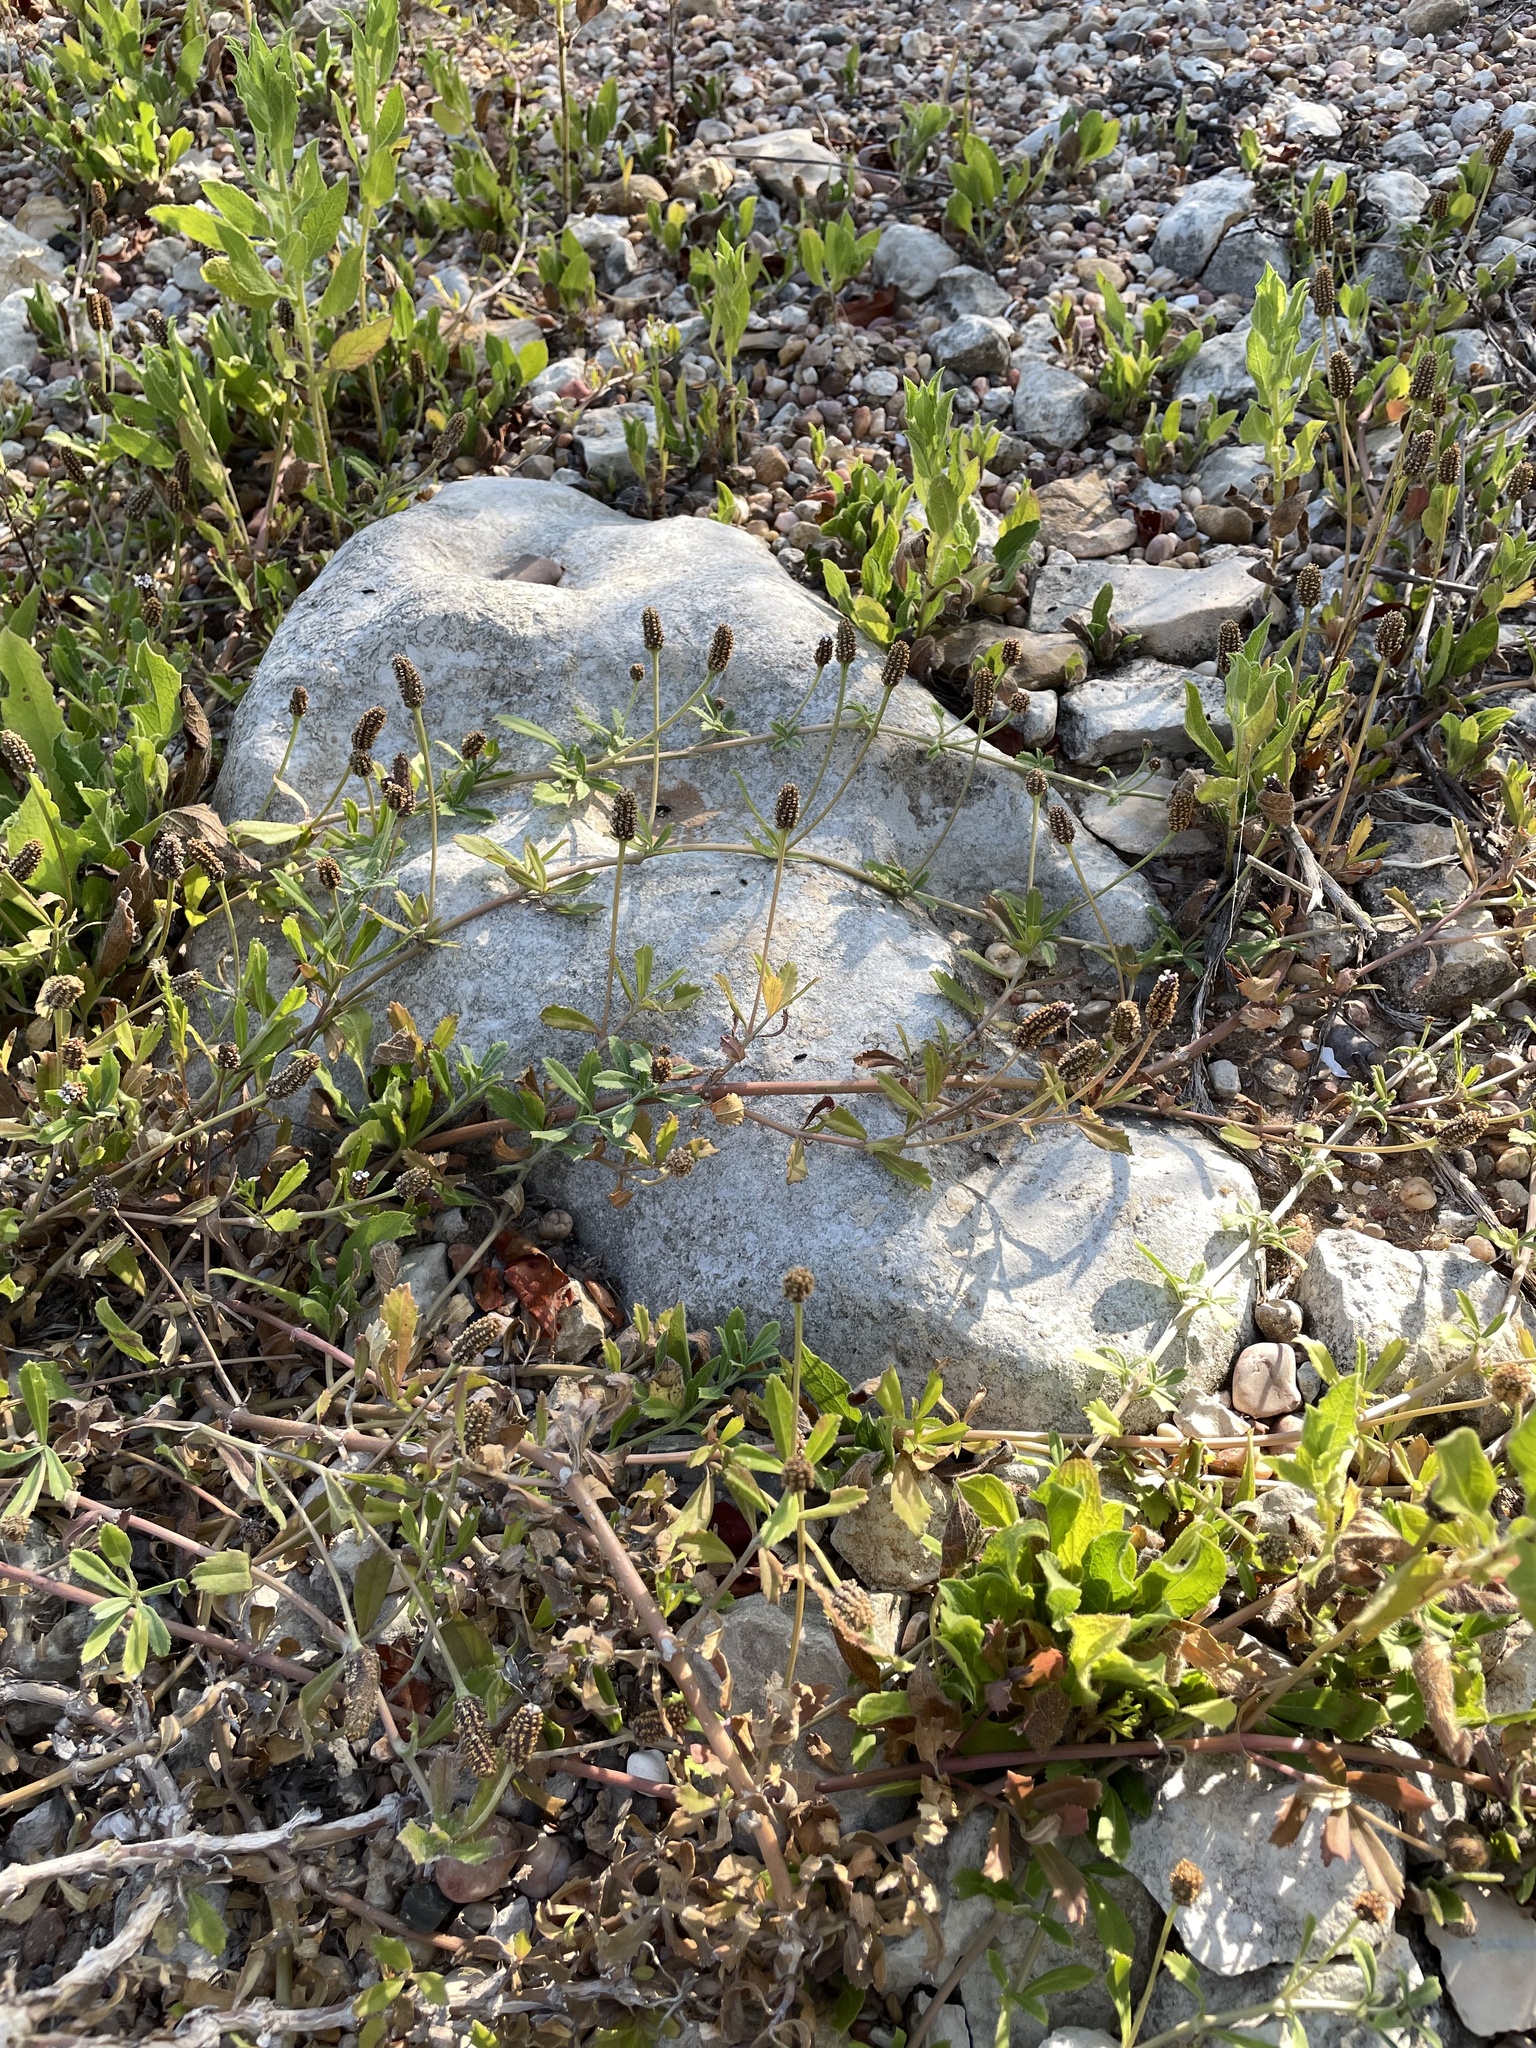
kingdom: Plantae
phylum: Tracheophyta
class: Magnoliopsida
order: Lamiales
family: Verbenaceae
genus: Phyla
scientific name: Phyla nodiflora
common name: Frogfruit
